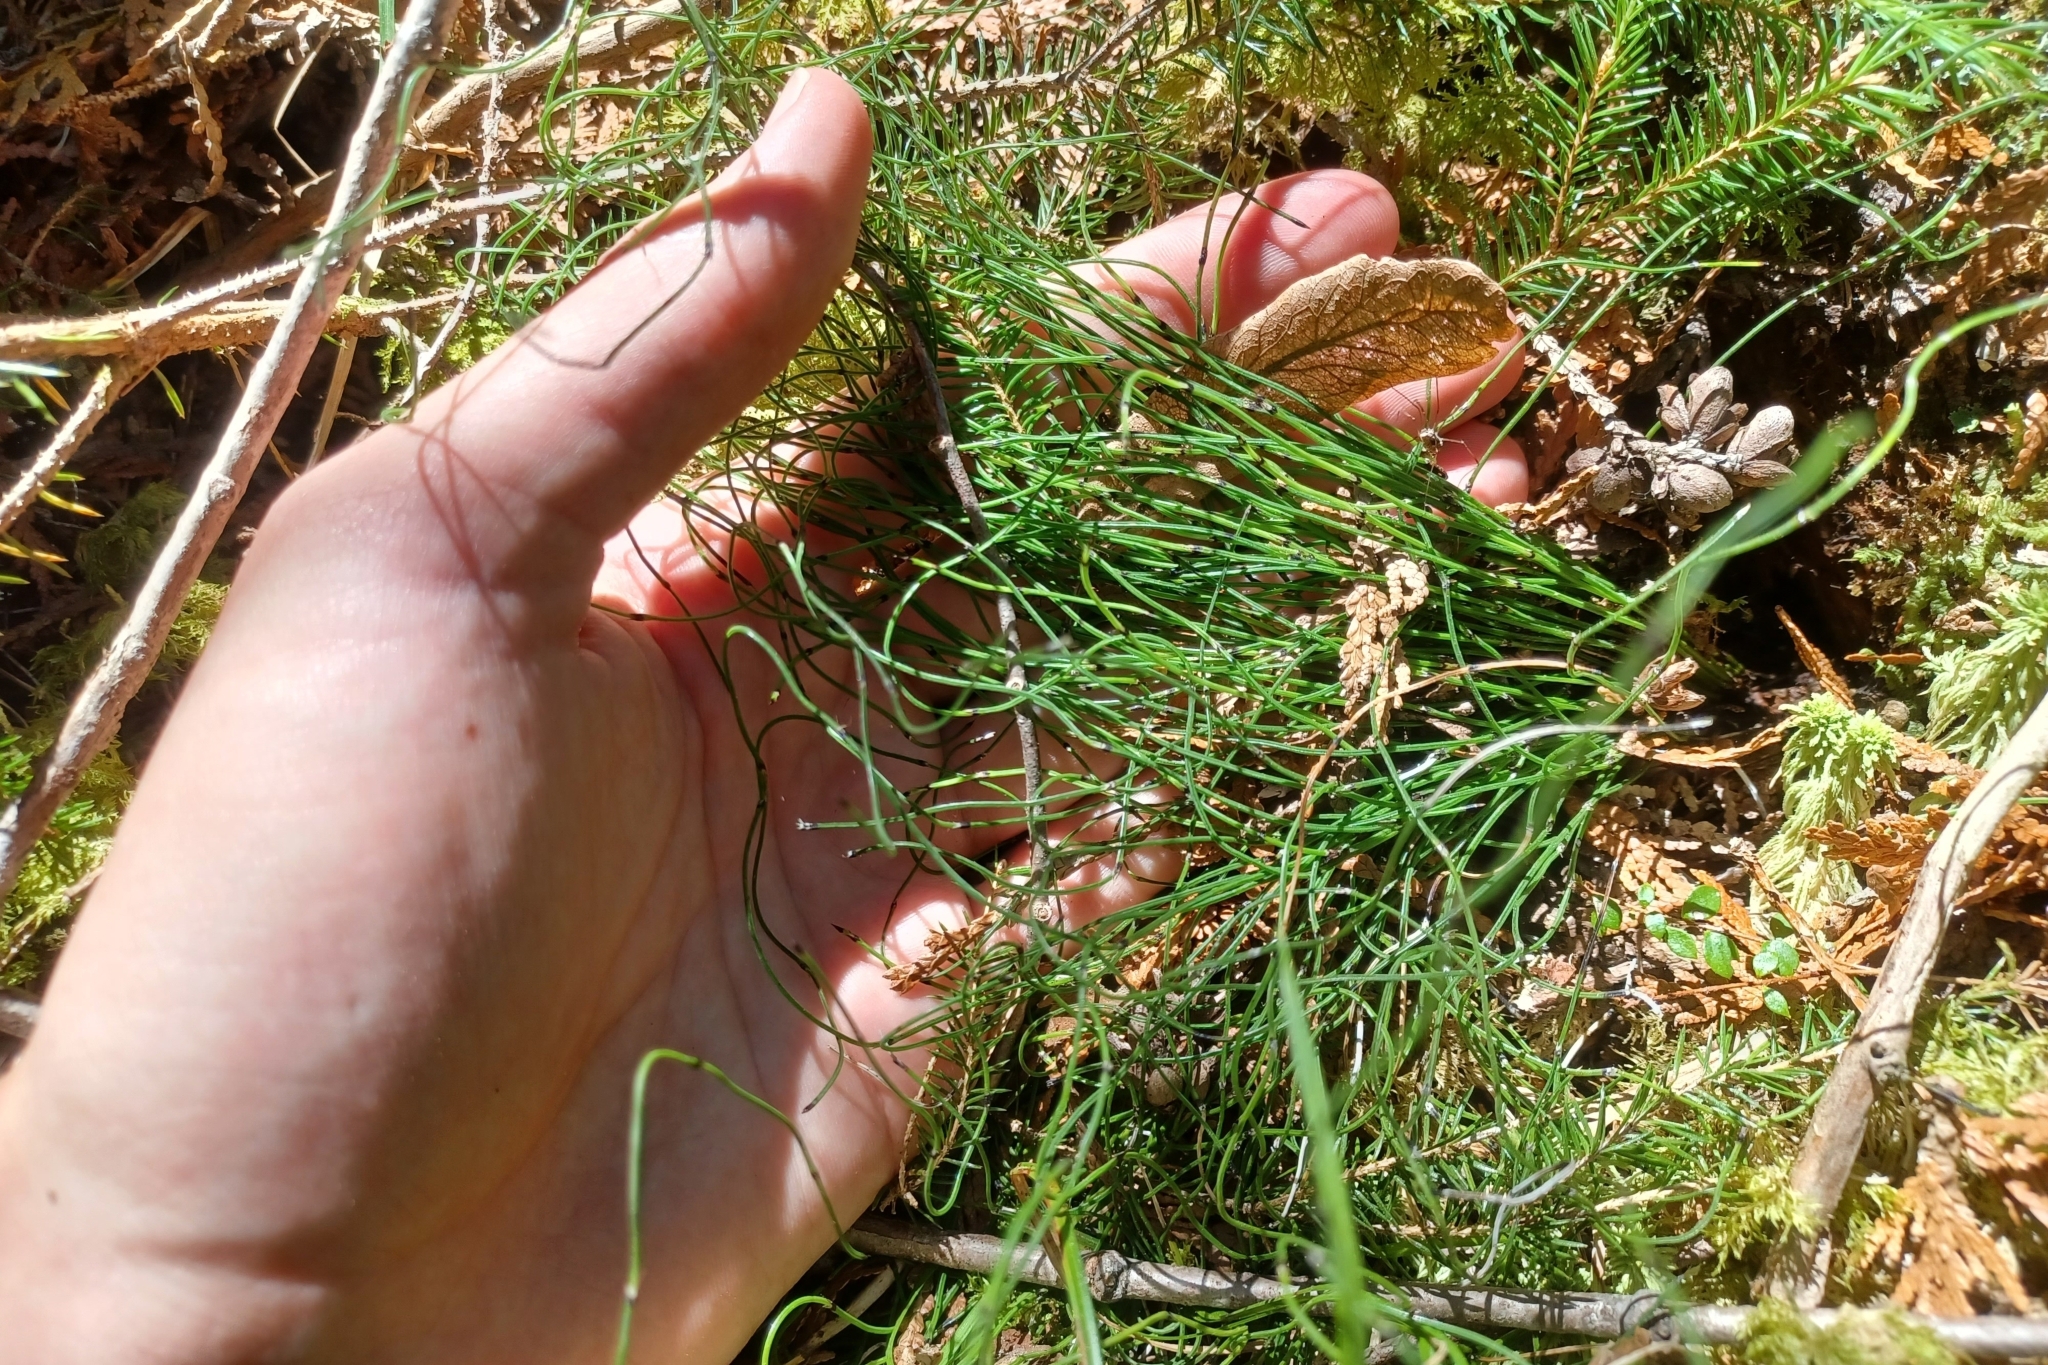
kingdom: Plantae
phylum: Tracheophyta
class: Polypodiopsida
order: Equisetales
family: Equisetaceae
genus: Equisetum
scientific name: Equisetum scirpoides
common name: Delicate horsetail
